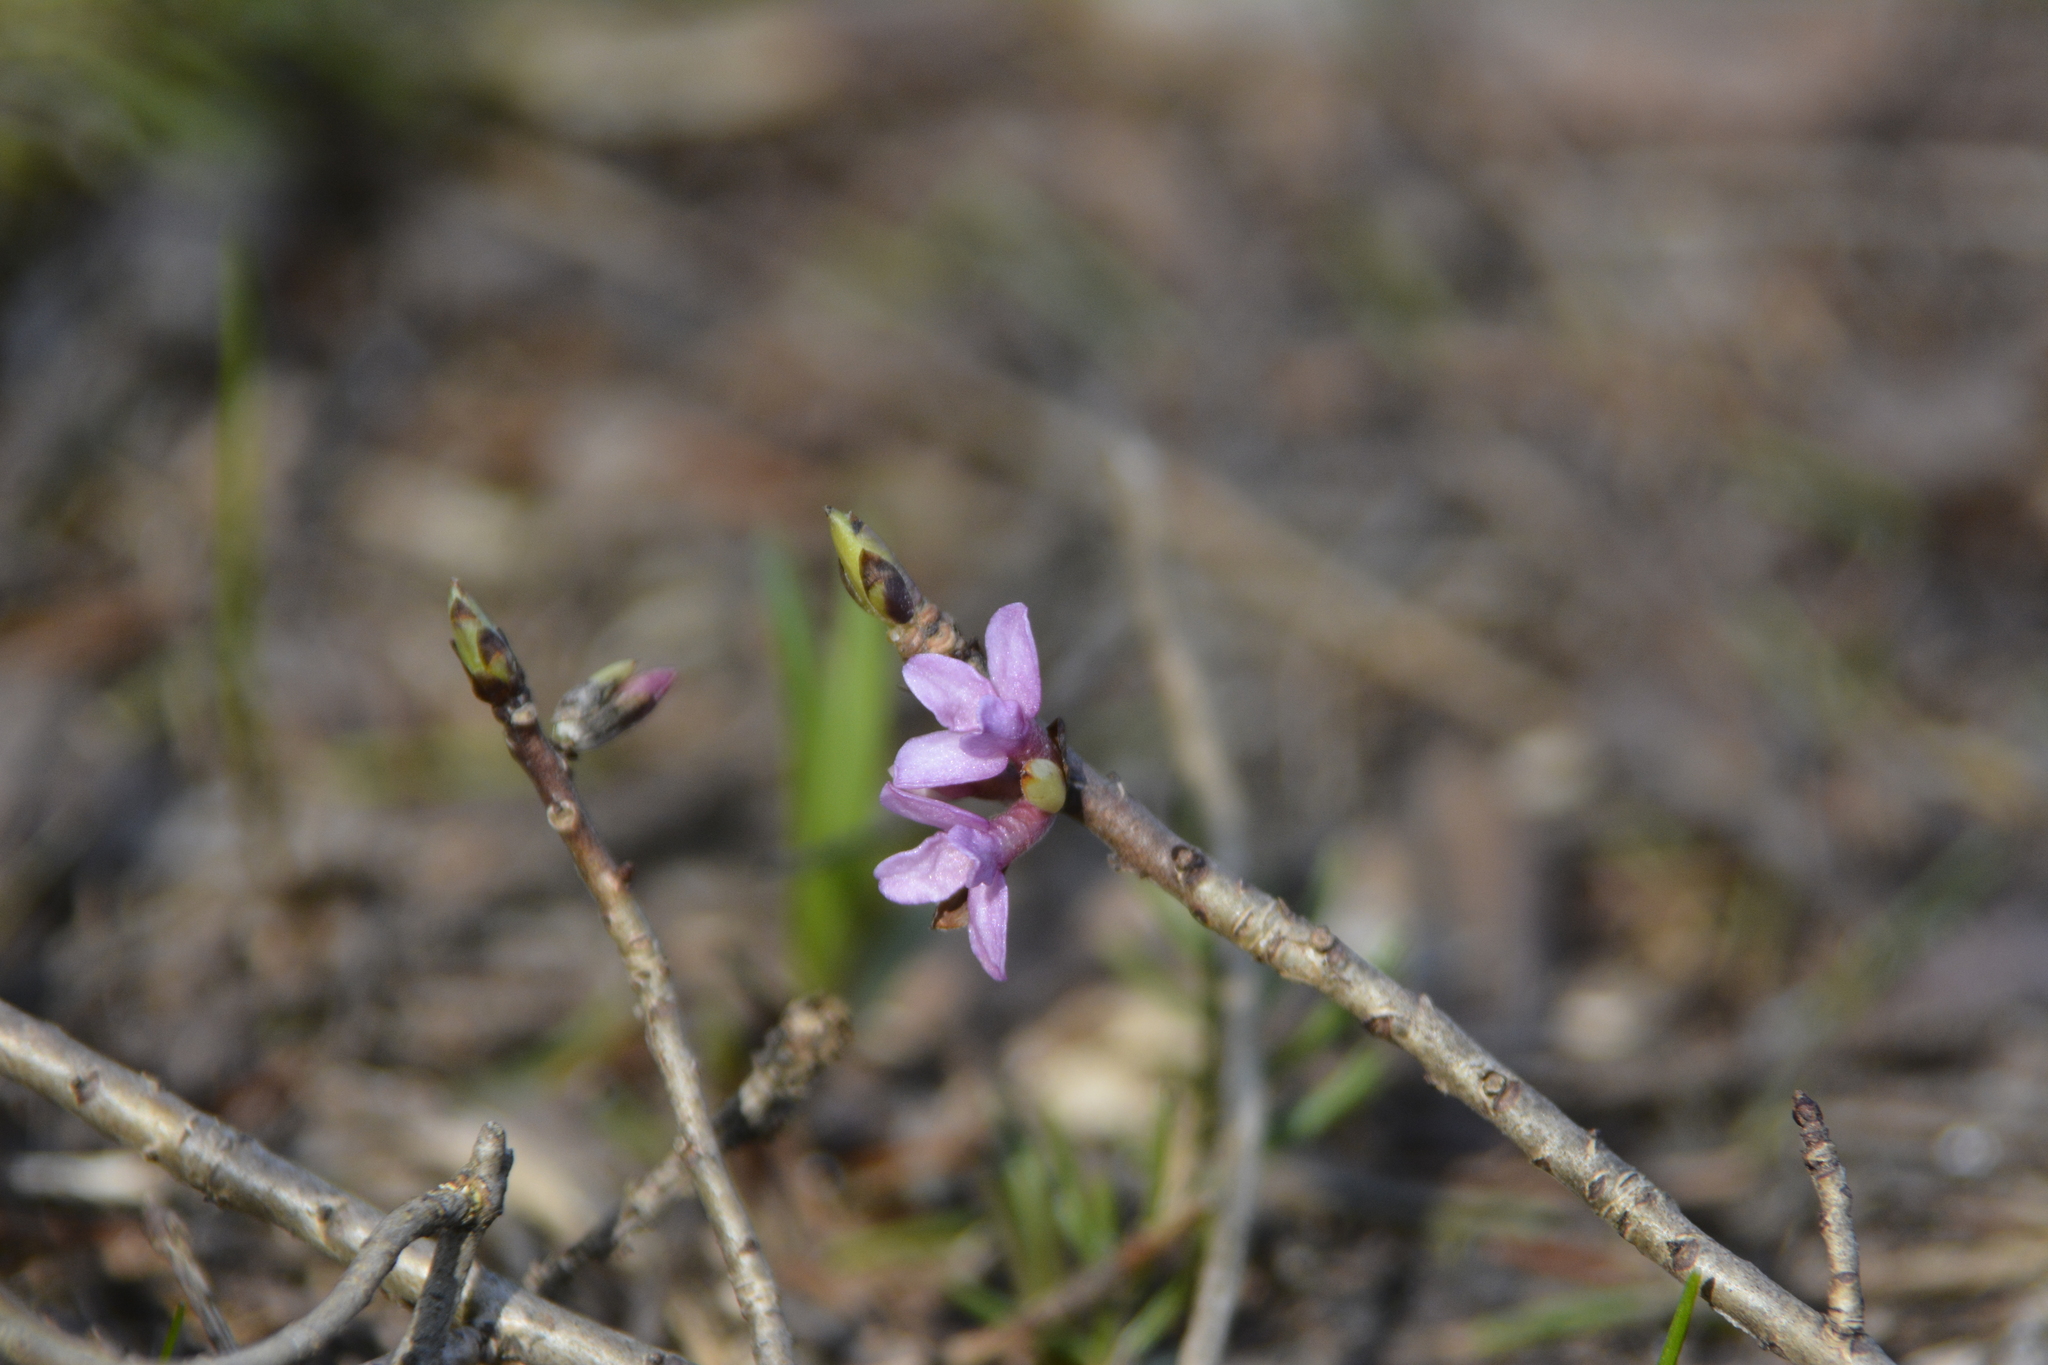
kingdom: Plantae
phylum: Tracheophyta
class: Magnoliopsida
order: Malvales
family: Thymelaeaceae
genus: Daphne
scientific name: Daphne mezereum
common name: Mezereon
